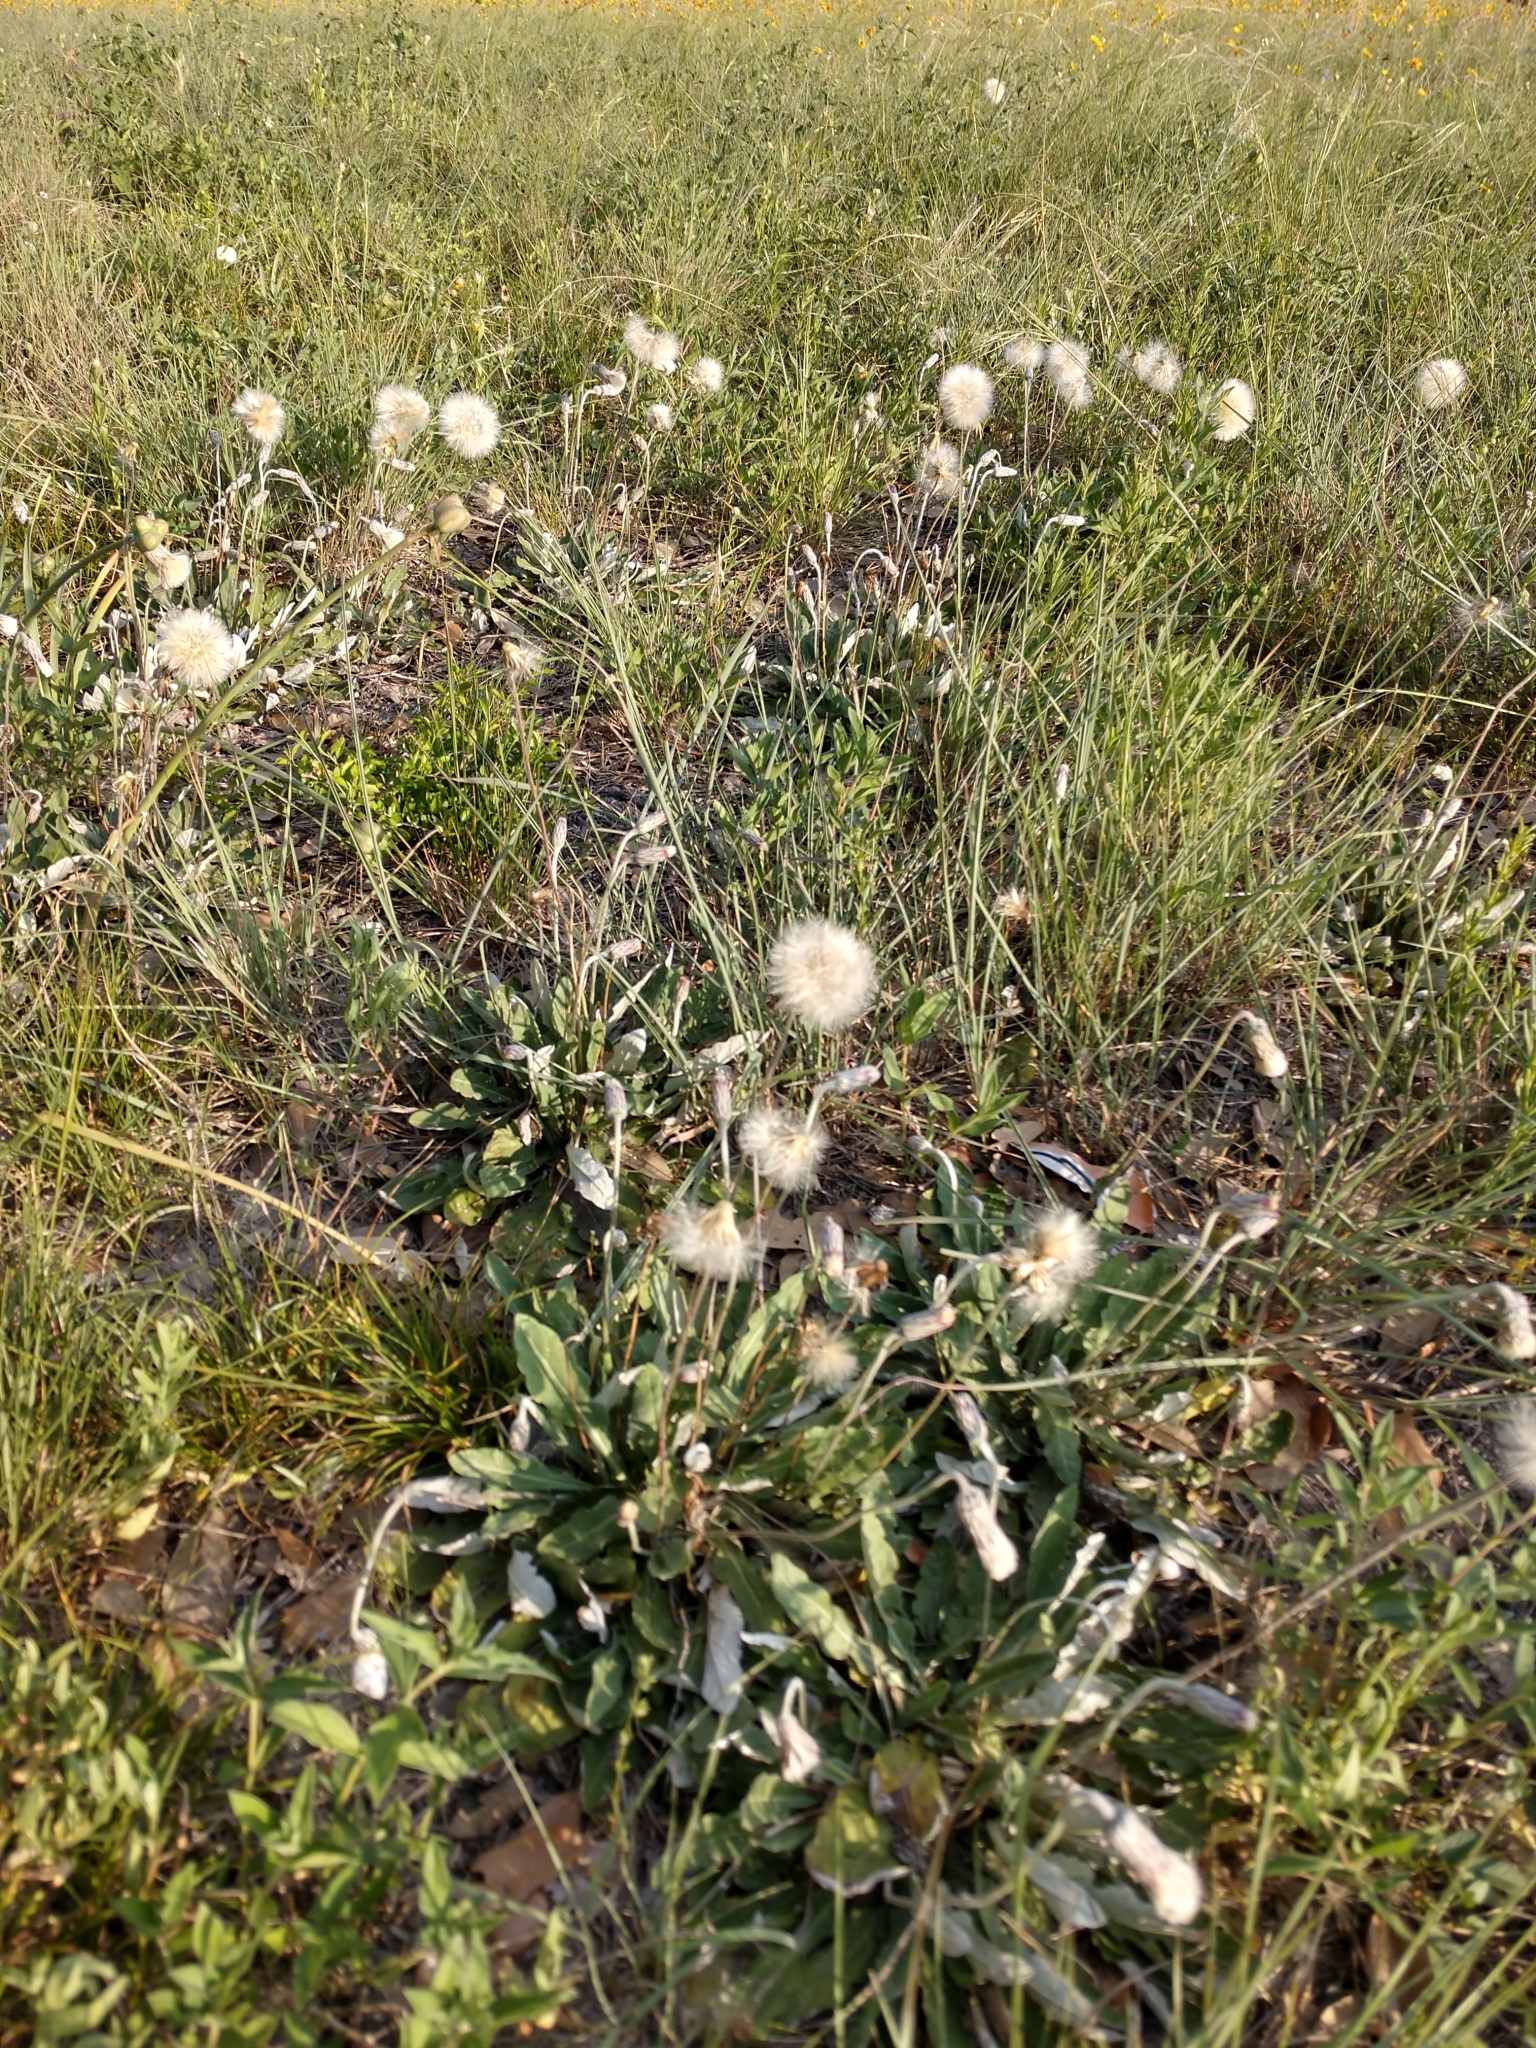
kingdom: Plantae
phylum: Tracheophyta
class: Magnoliopsida
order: Asterales
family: Asteraceae
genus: Chaptalia
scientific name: Chaptalia texana
